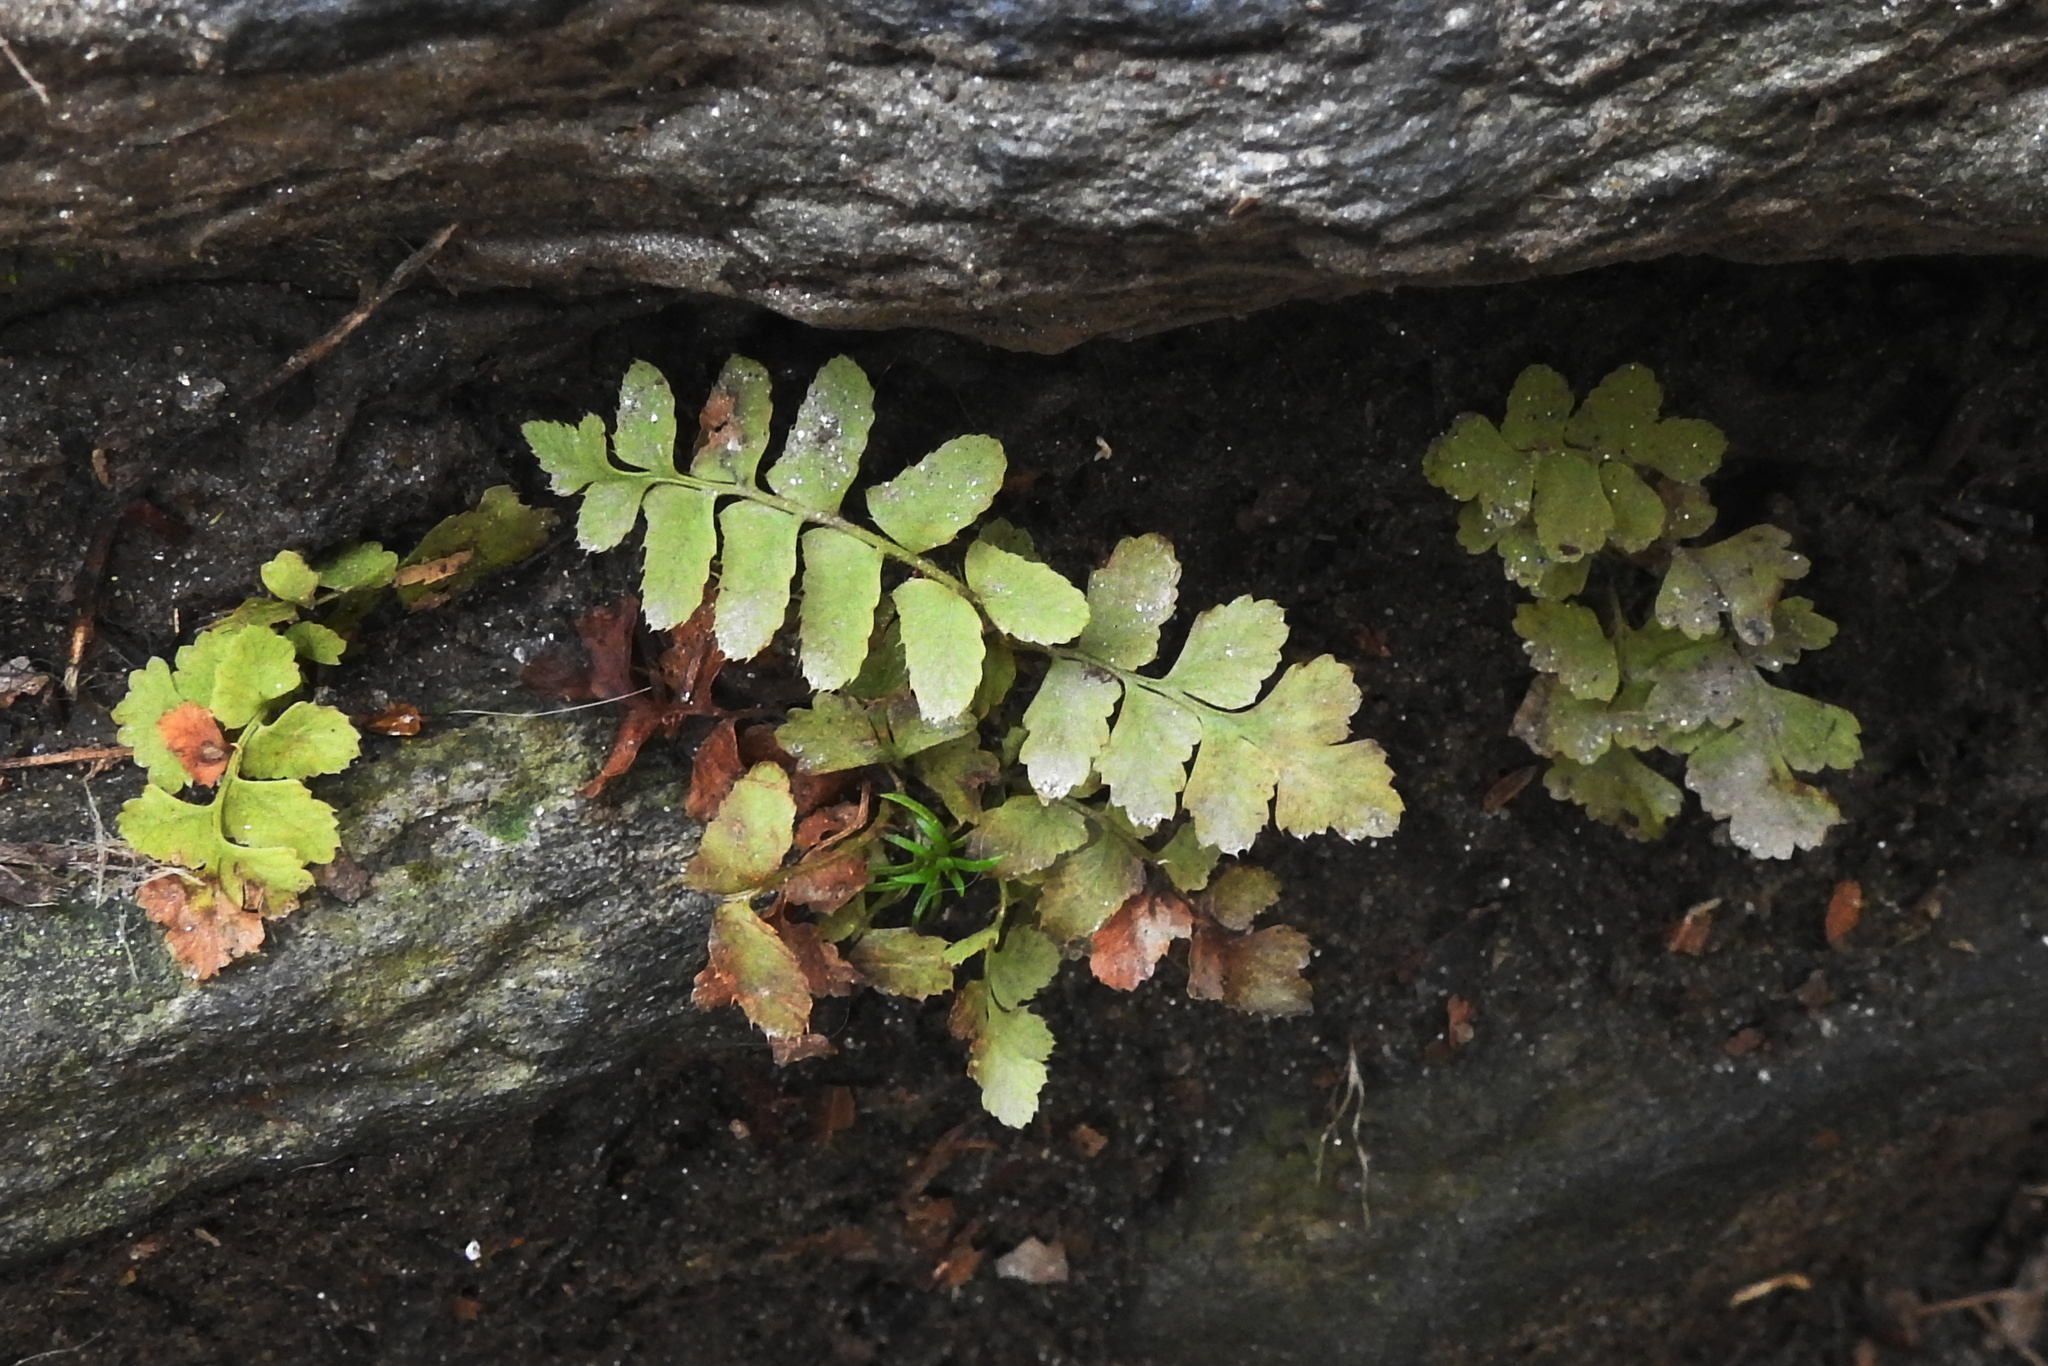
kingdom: Plantae
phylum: Tracheophyta
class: Polypodiopsida
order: Polypodiales
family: Dryopteridaceae
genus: Polystichum
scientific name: Polystichum acrostichoides
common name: Christmas fern
